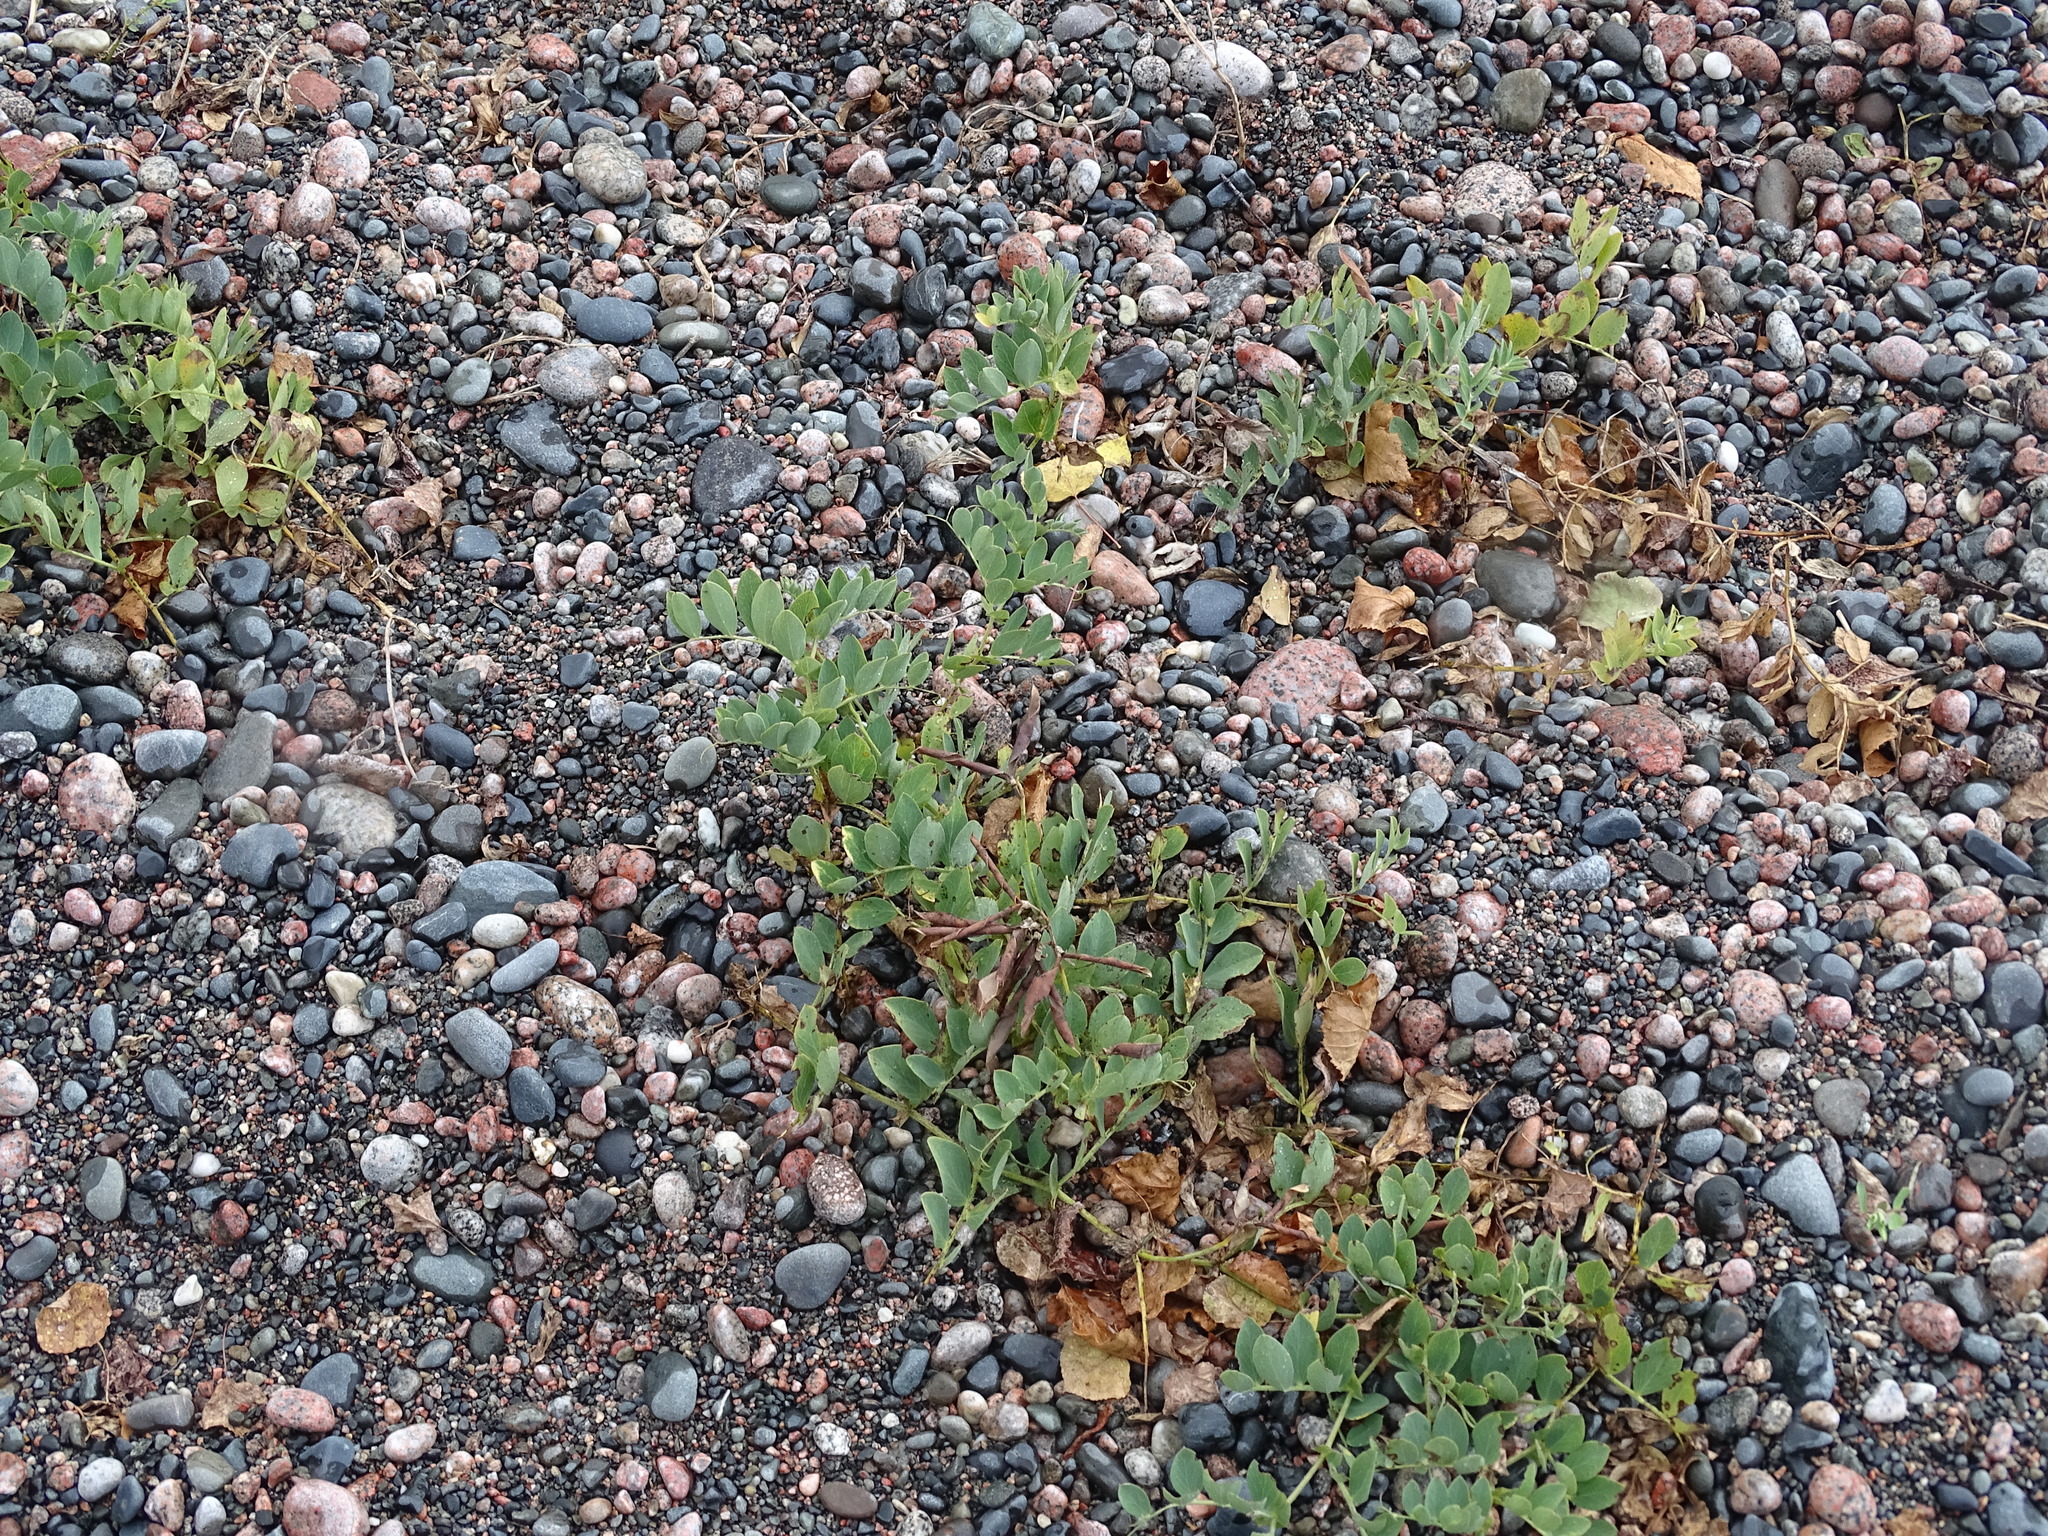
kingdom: Plantae
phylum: Tracheophyta
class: Magnoliopsida
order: Fabales
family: Fabaceae
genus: Lathyrus
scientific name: Lathyrus japonicus
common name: Sea pea
